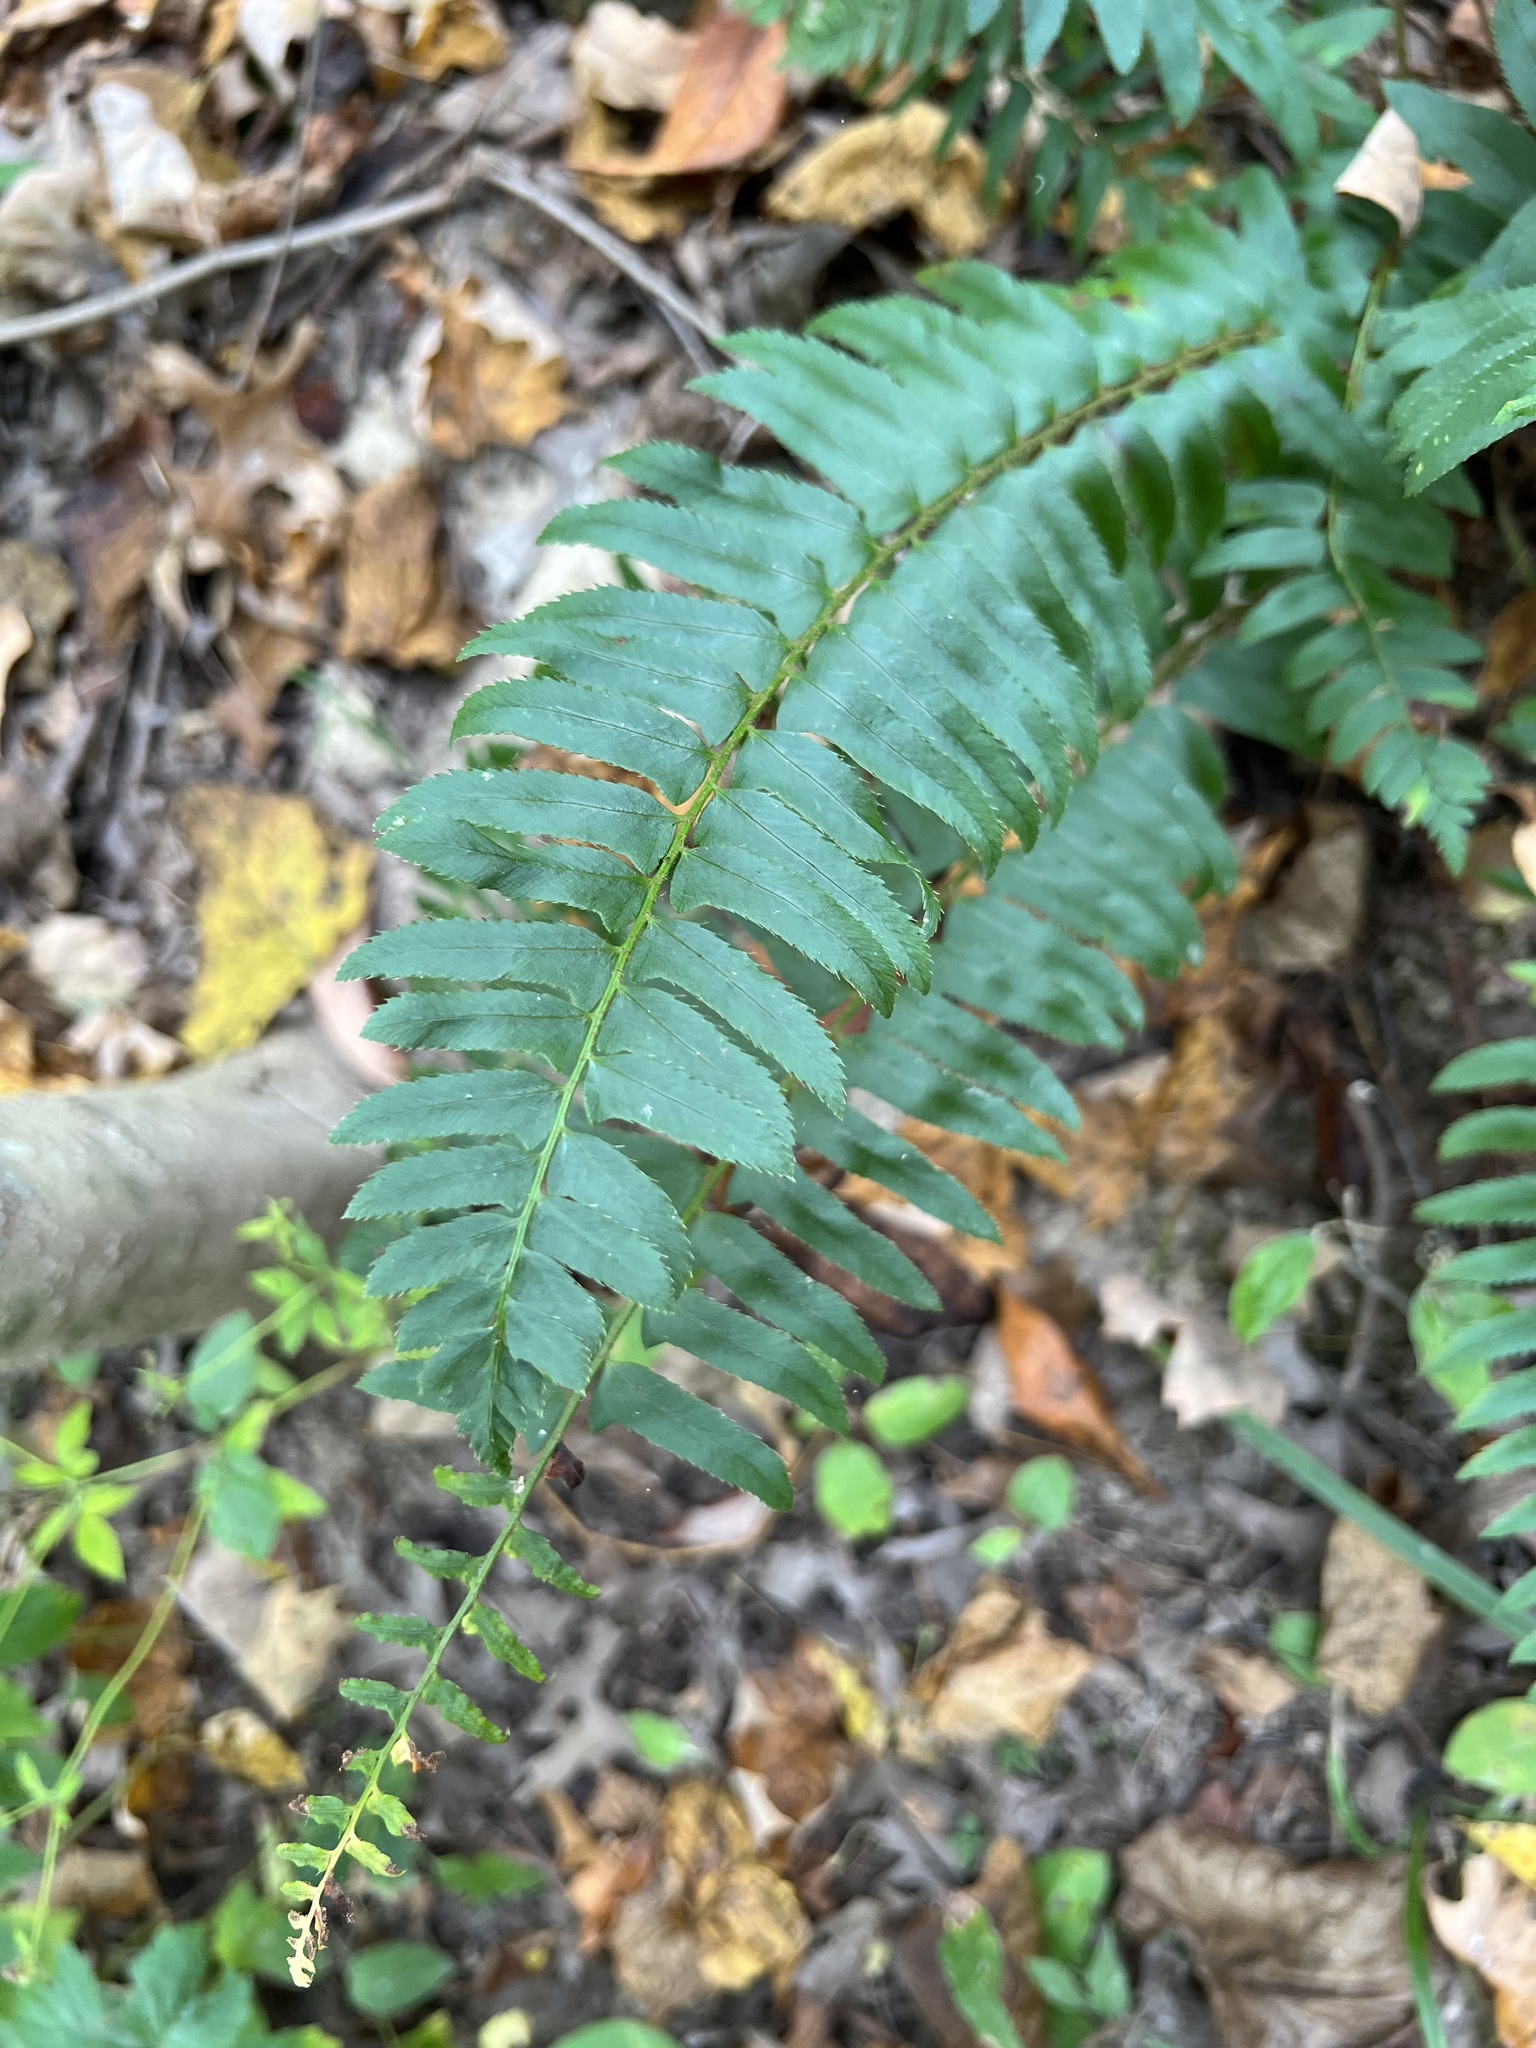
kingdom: Plantae
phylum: Tracheophyta
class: Polypodiopsida
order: Polypodiales
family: Dryopteridaceae
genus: Polystichum
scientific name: Polystichum acrostichoides
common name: Christmas fern
